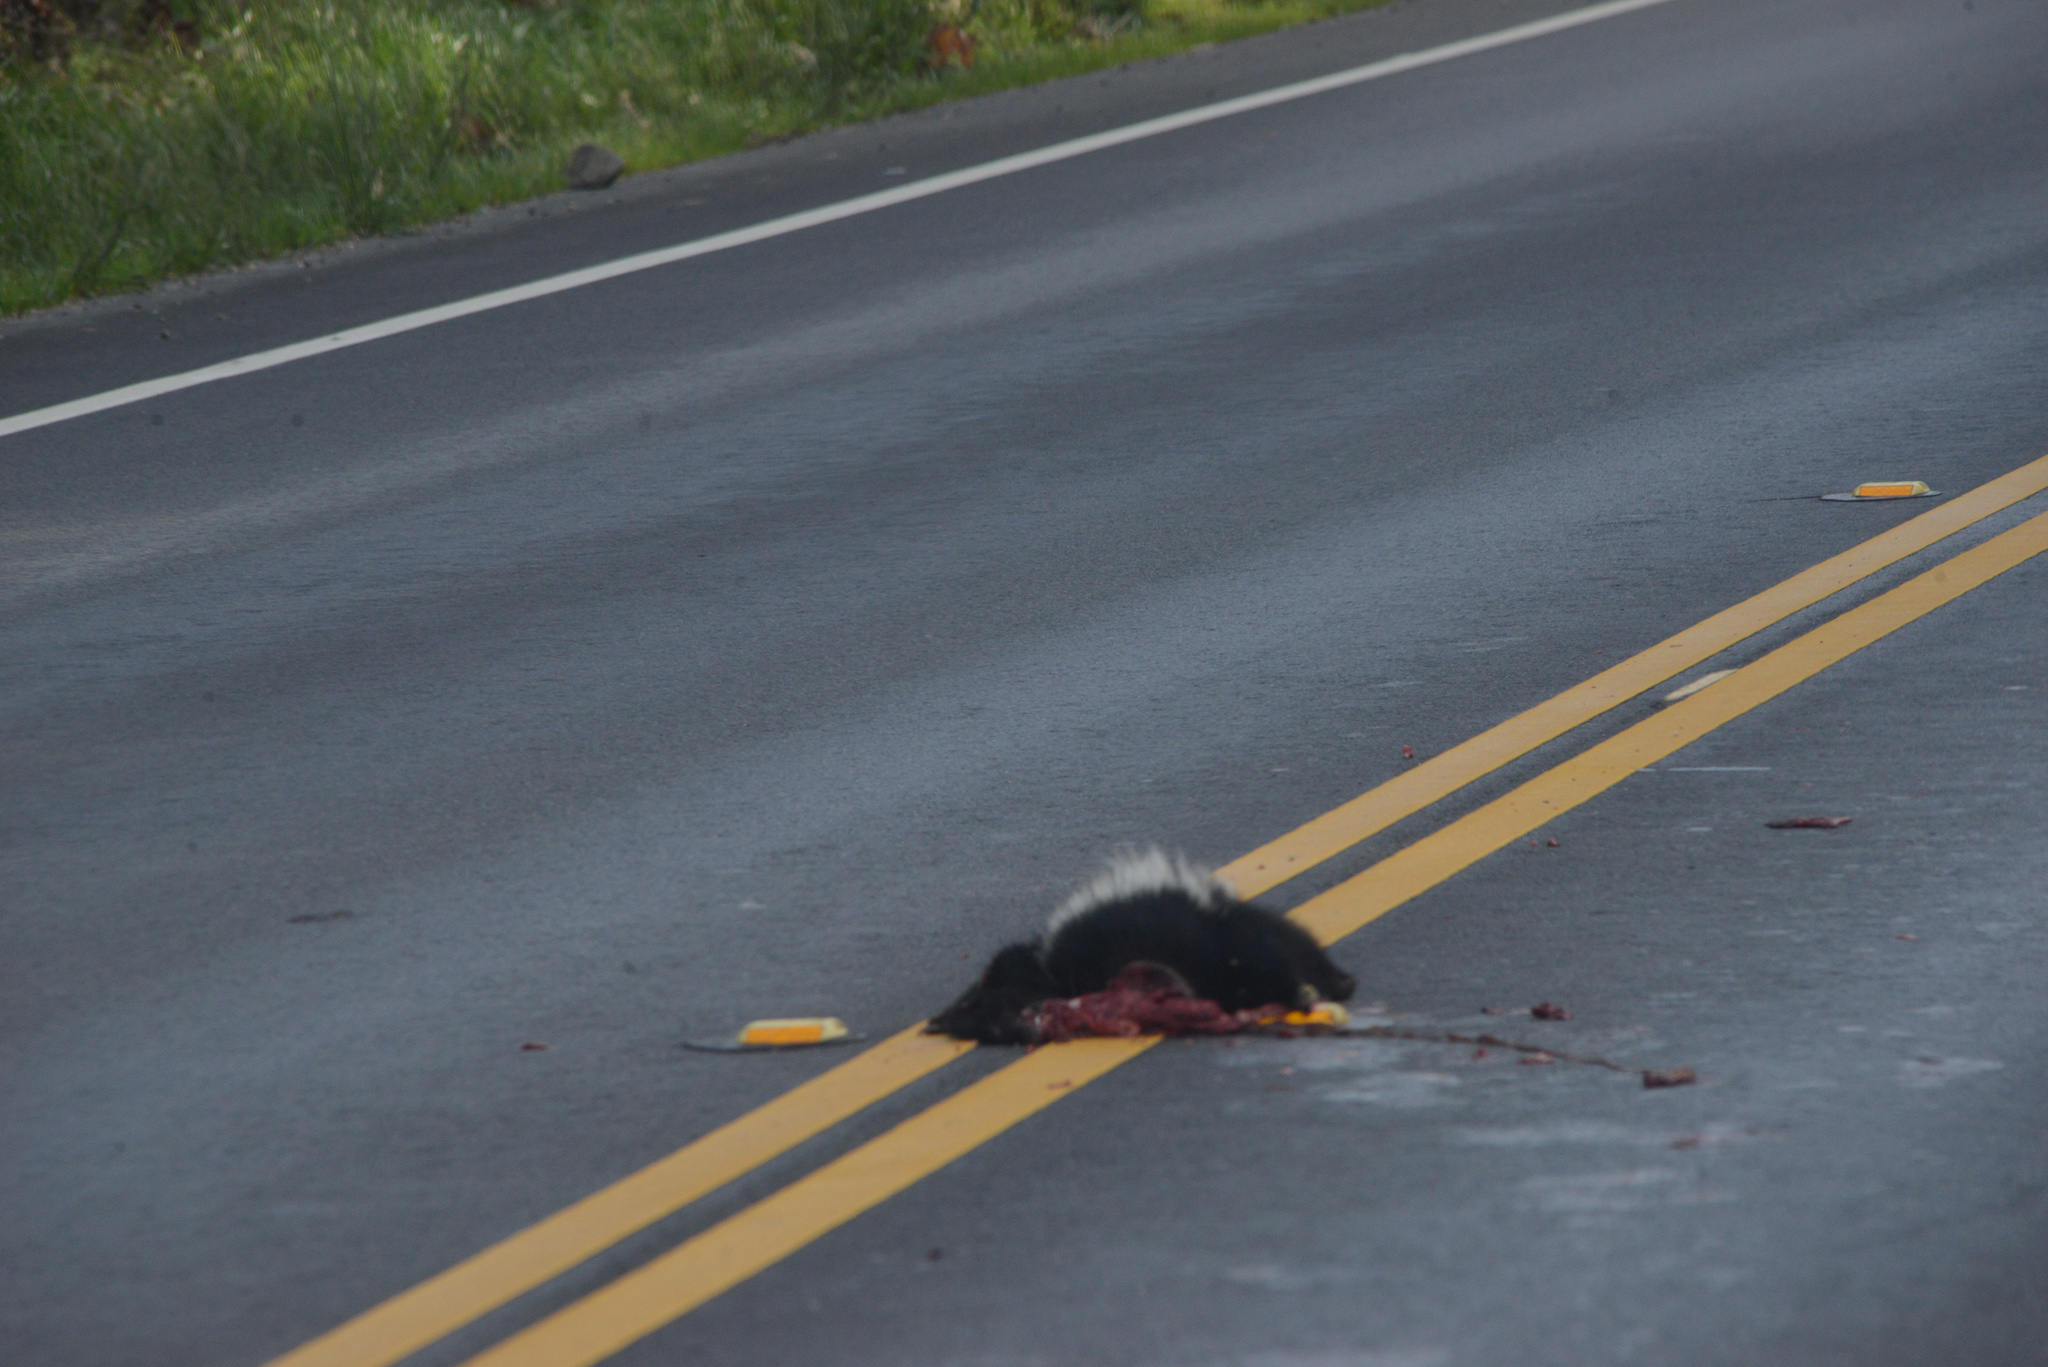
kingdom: Animalia
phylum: Chordata
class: Mammalia
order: Carnivora
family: Mephitidae
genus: Mephitis
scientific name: Mephitis mephitis
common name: Striped skunk
